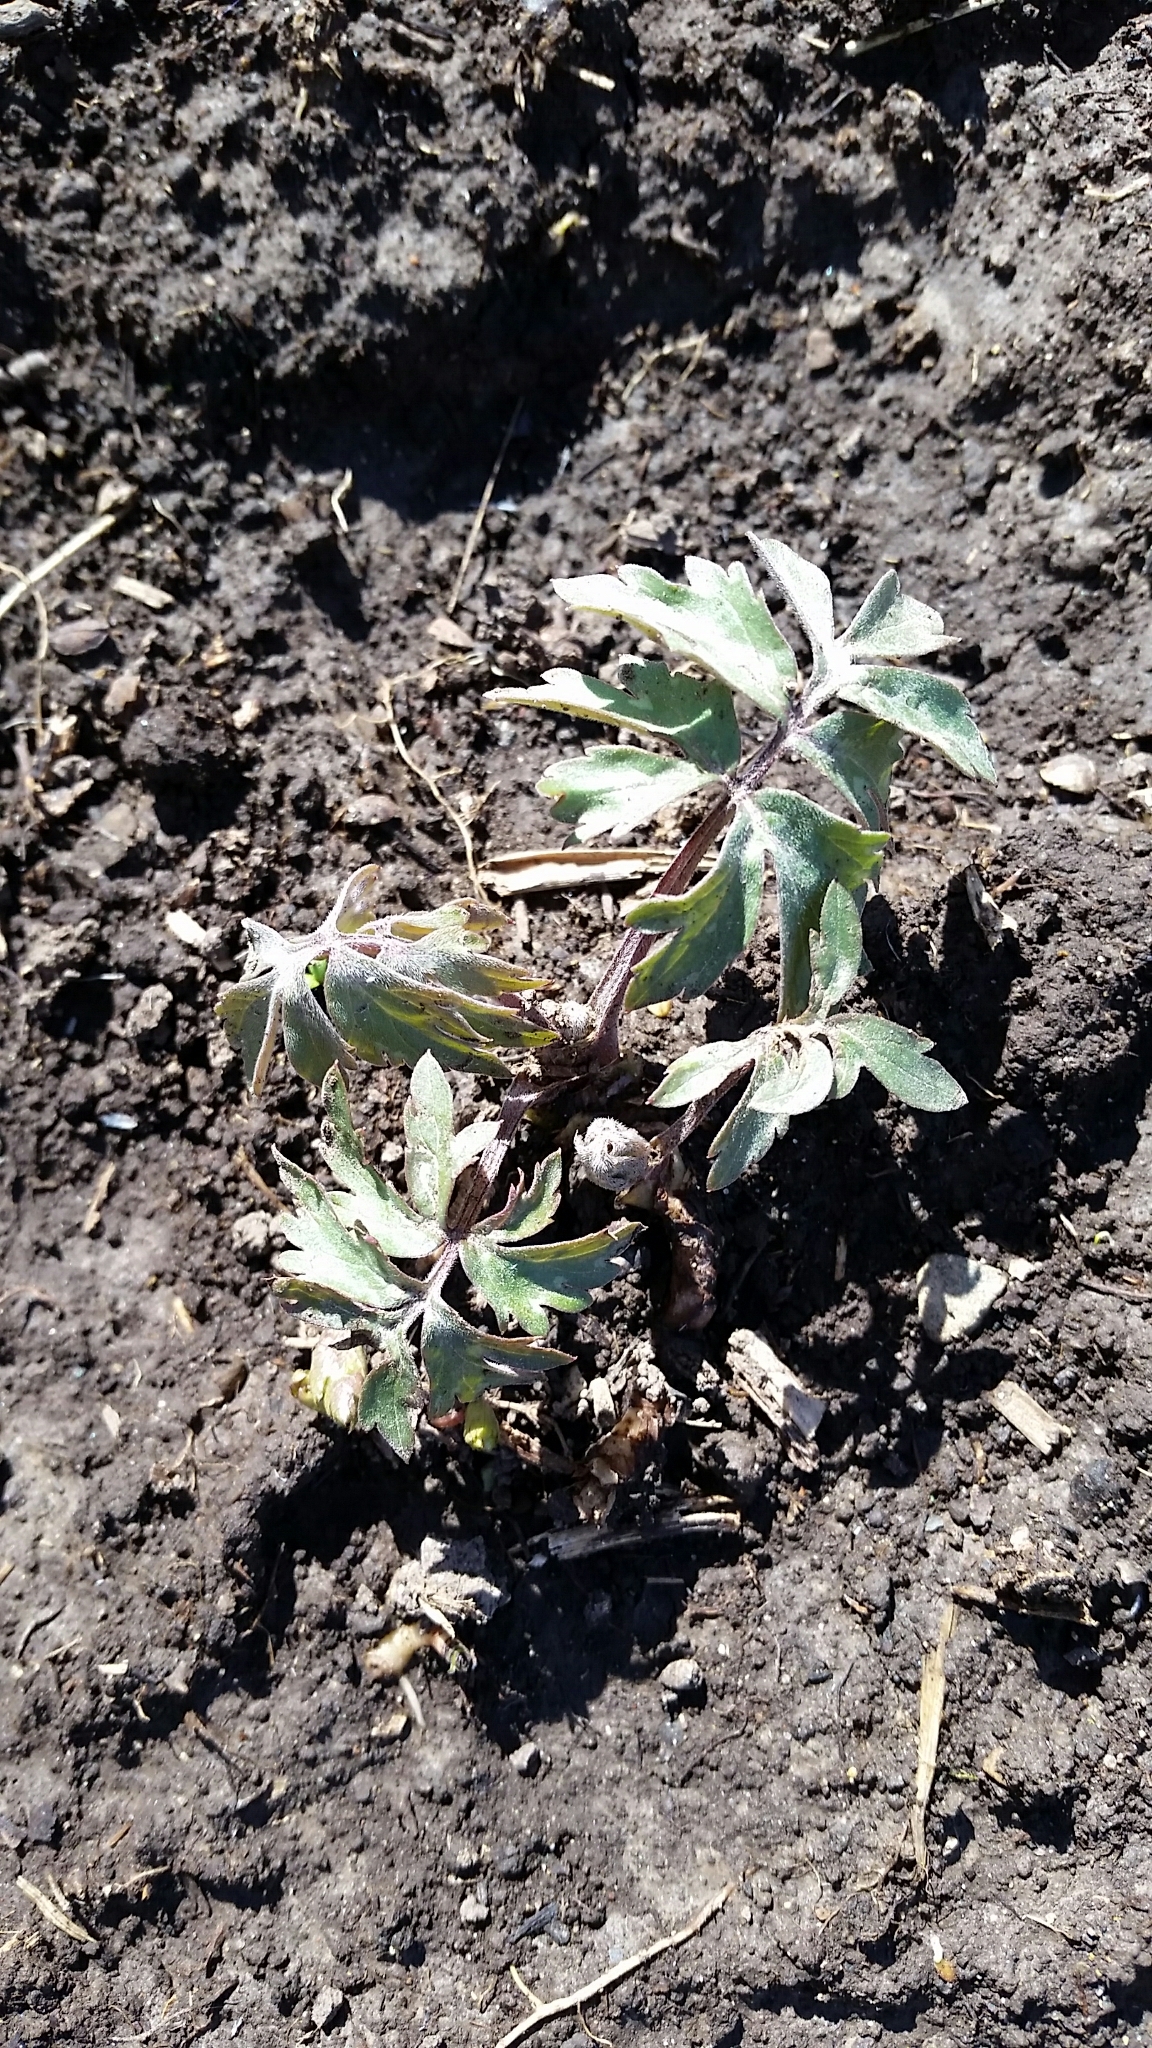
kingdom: Plantae
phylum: Tracheophyta
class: Magnoliopsida
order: Boraginales
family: Hydrophyllaceae
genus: Hydrophyllum
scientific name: Hydrophyllum virginianum
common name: Virginia waterleaf
